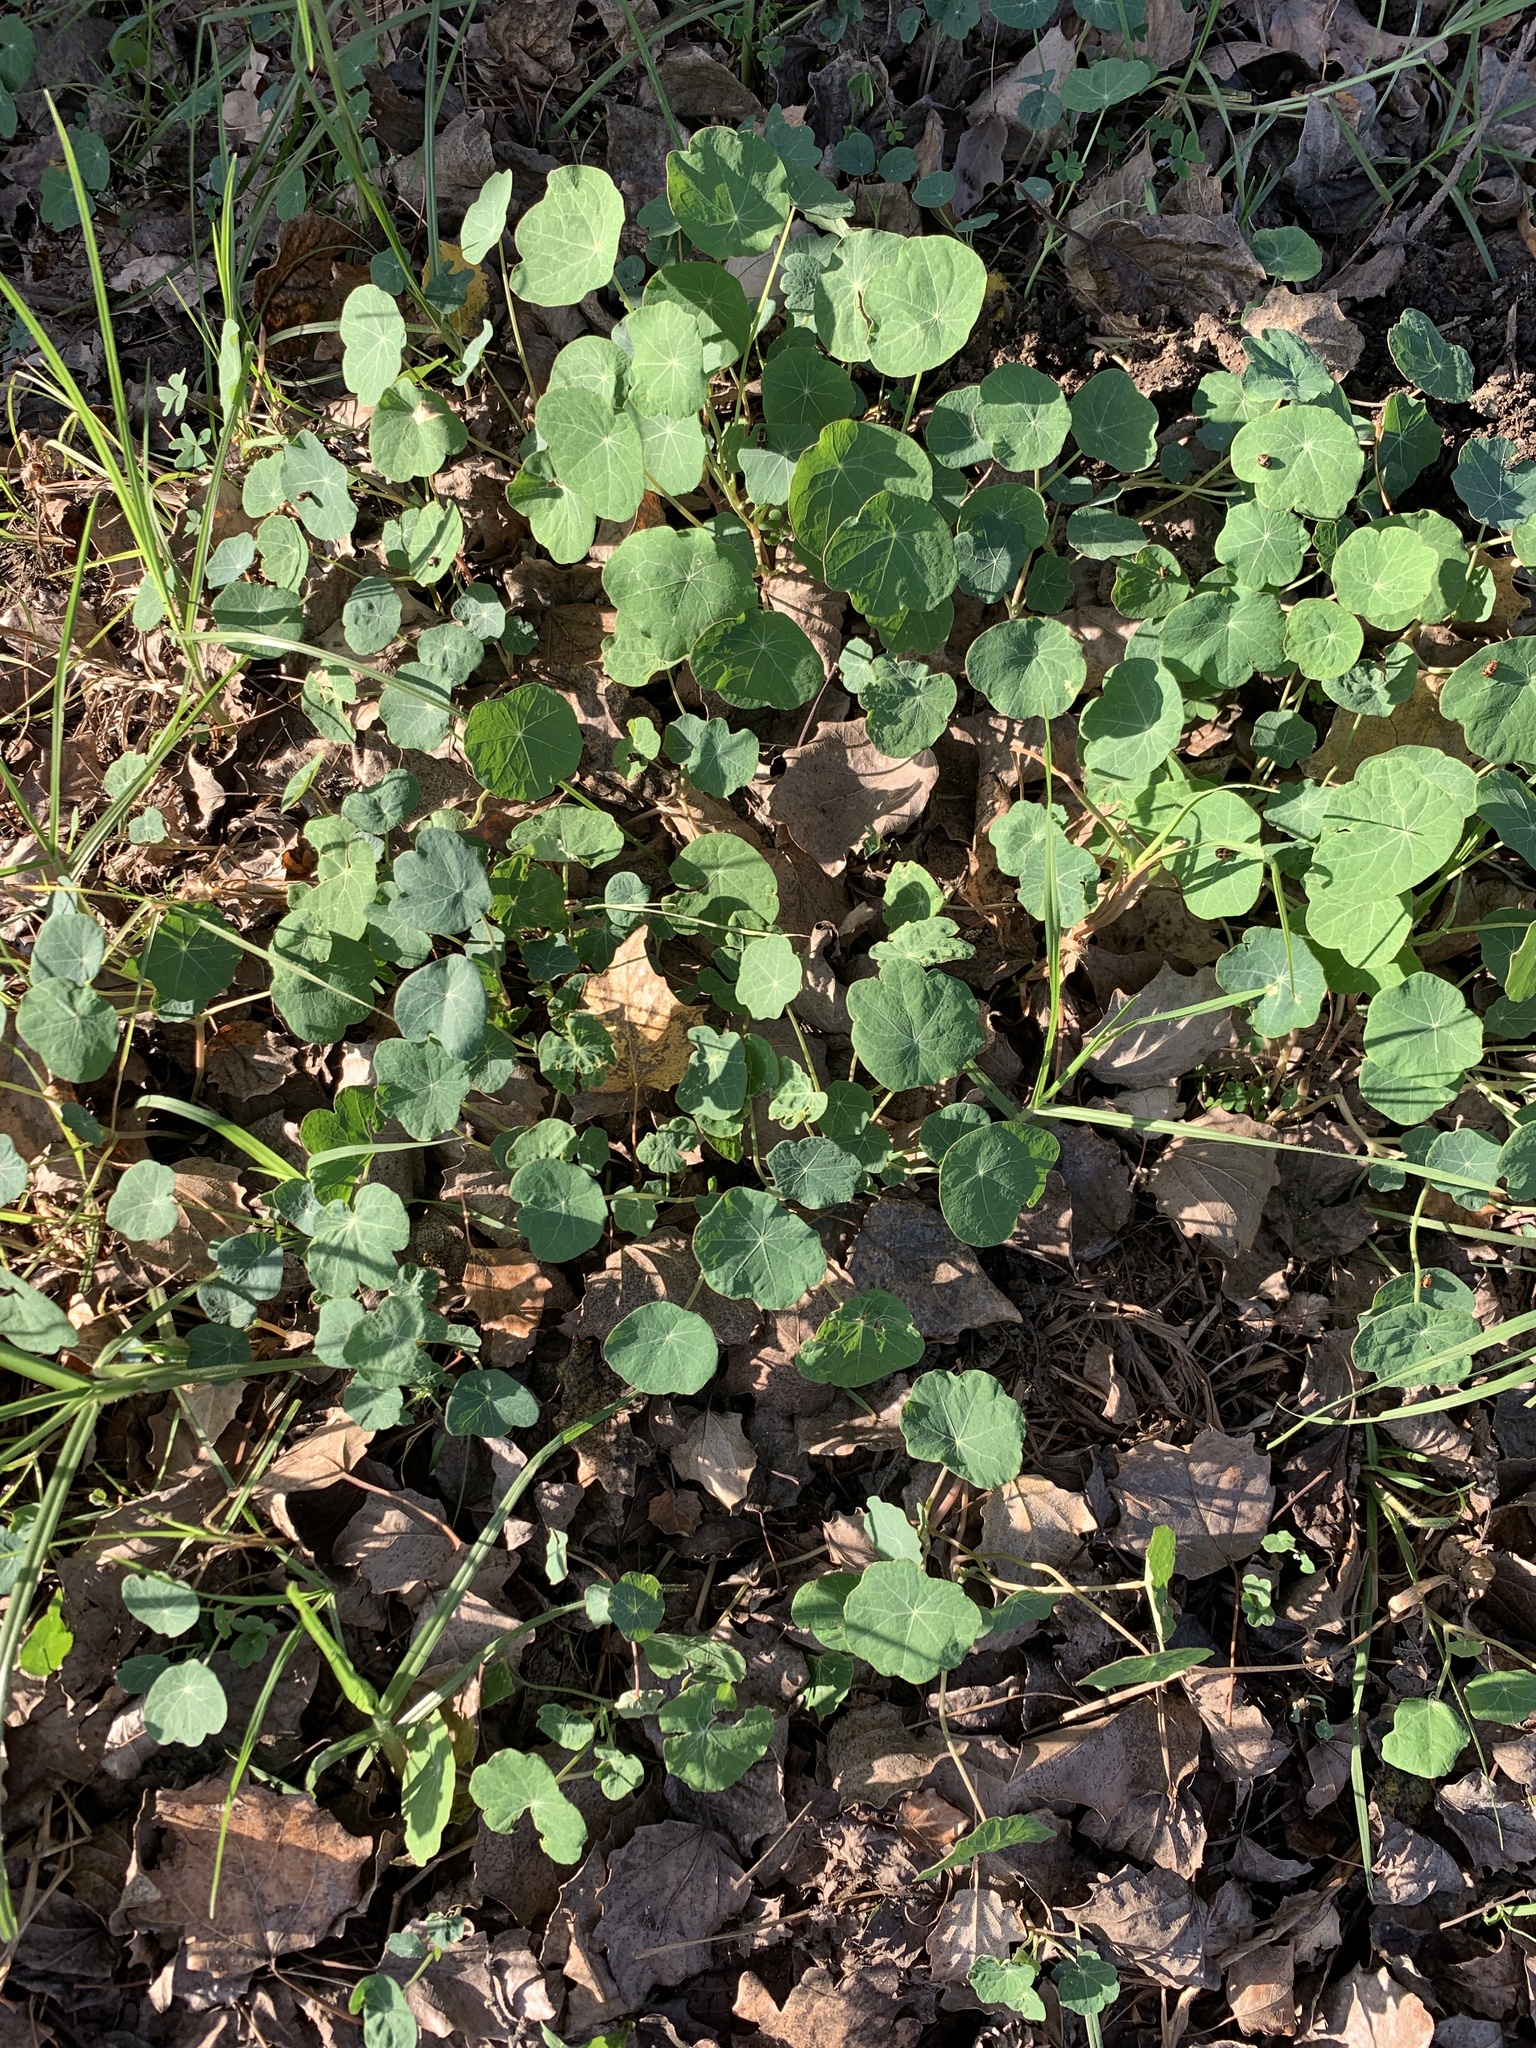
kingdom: Plantae
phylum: Tracheophyta
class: Magnoliopsida
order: Brassicales
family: Tropaeolaceae
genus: Tropaeolum
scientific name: Tropaeolum majus
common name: Nasturtium
